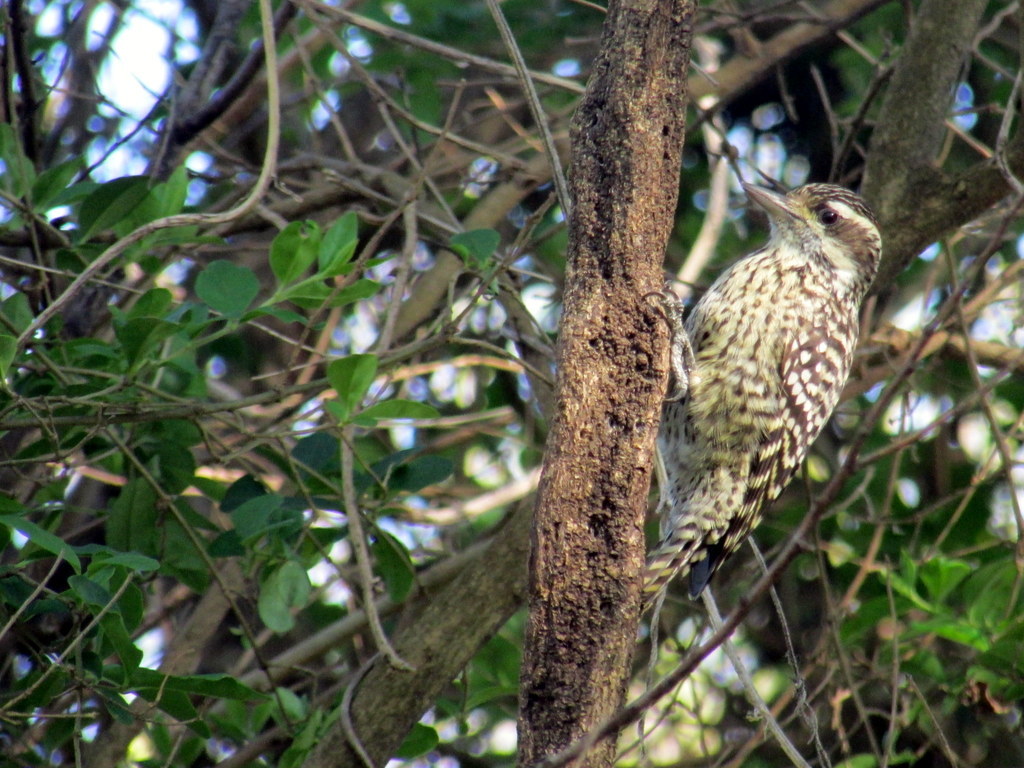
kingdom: Animalia
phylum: Chordata
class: Aves
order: Piciformes
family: Picidae
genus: Veniliornis
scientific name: Veniliornis mixtus
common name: Checkered woodpecker
